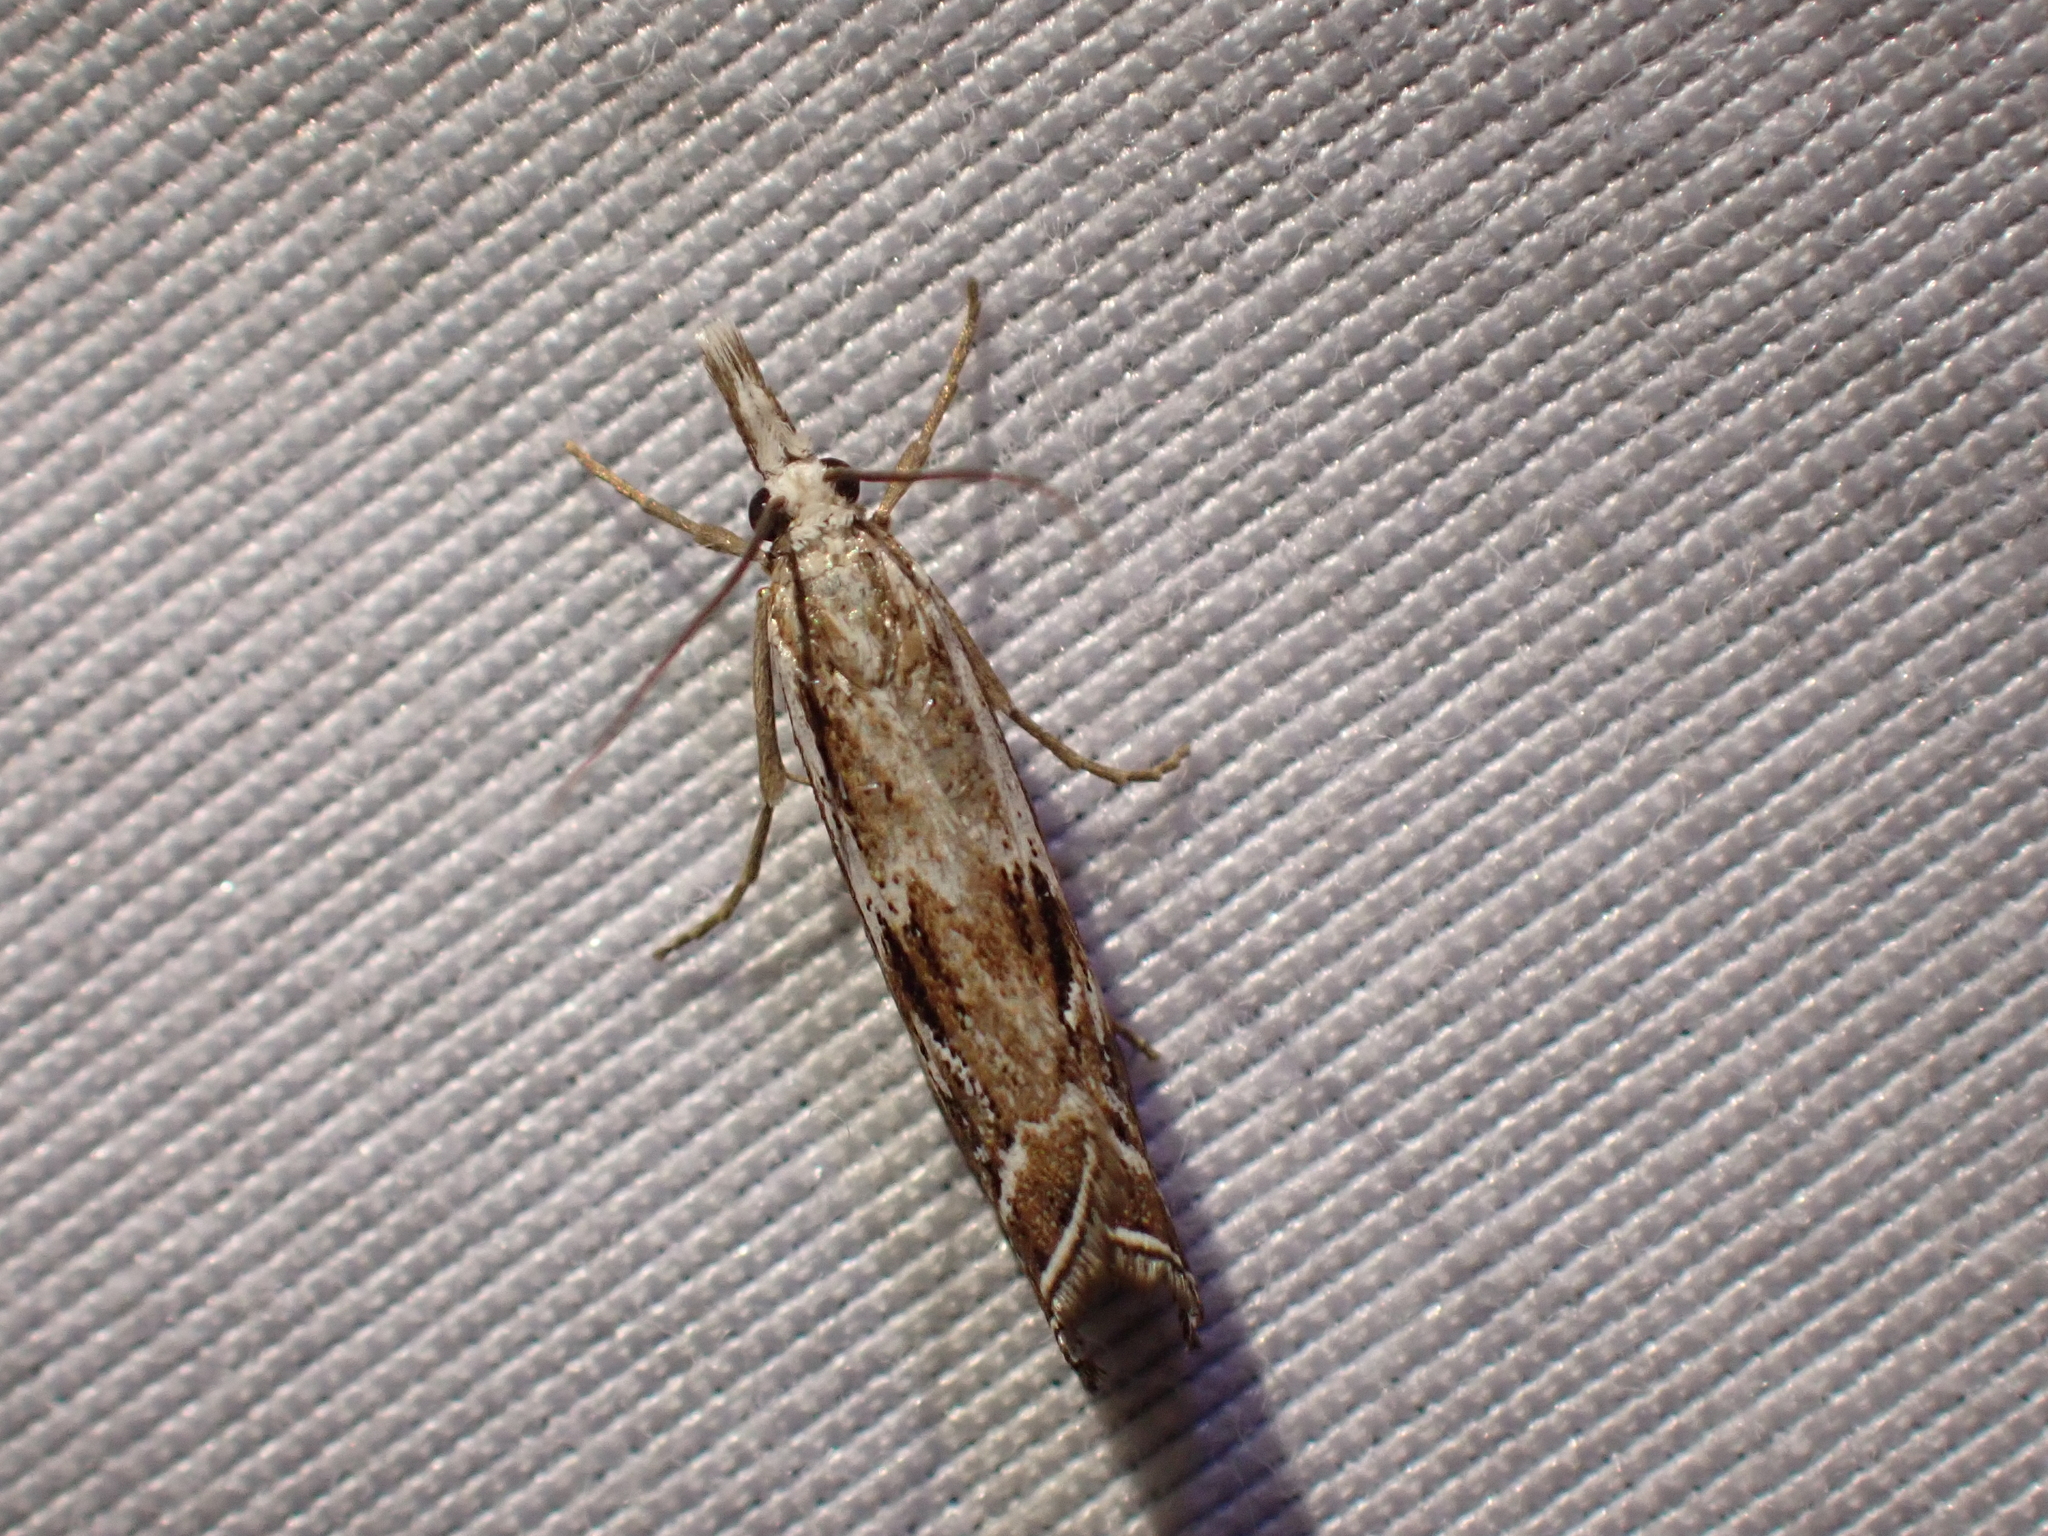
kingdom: Animalia
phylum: Arthropoda
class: Insecta
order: Lepidoptera
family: Crambidae
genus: Catoptria
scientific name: Catoptria oregonicus
